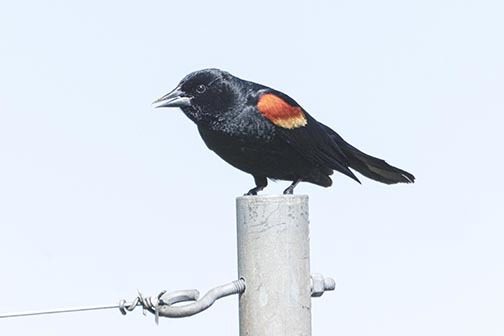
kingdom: Animalia
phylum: Chordata
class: Aves
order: Passeriformes
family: Icteridae
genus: Agelaius
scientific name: Agelaius phoeniceus
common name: Red-winged blackbird
